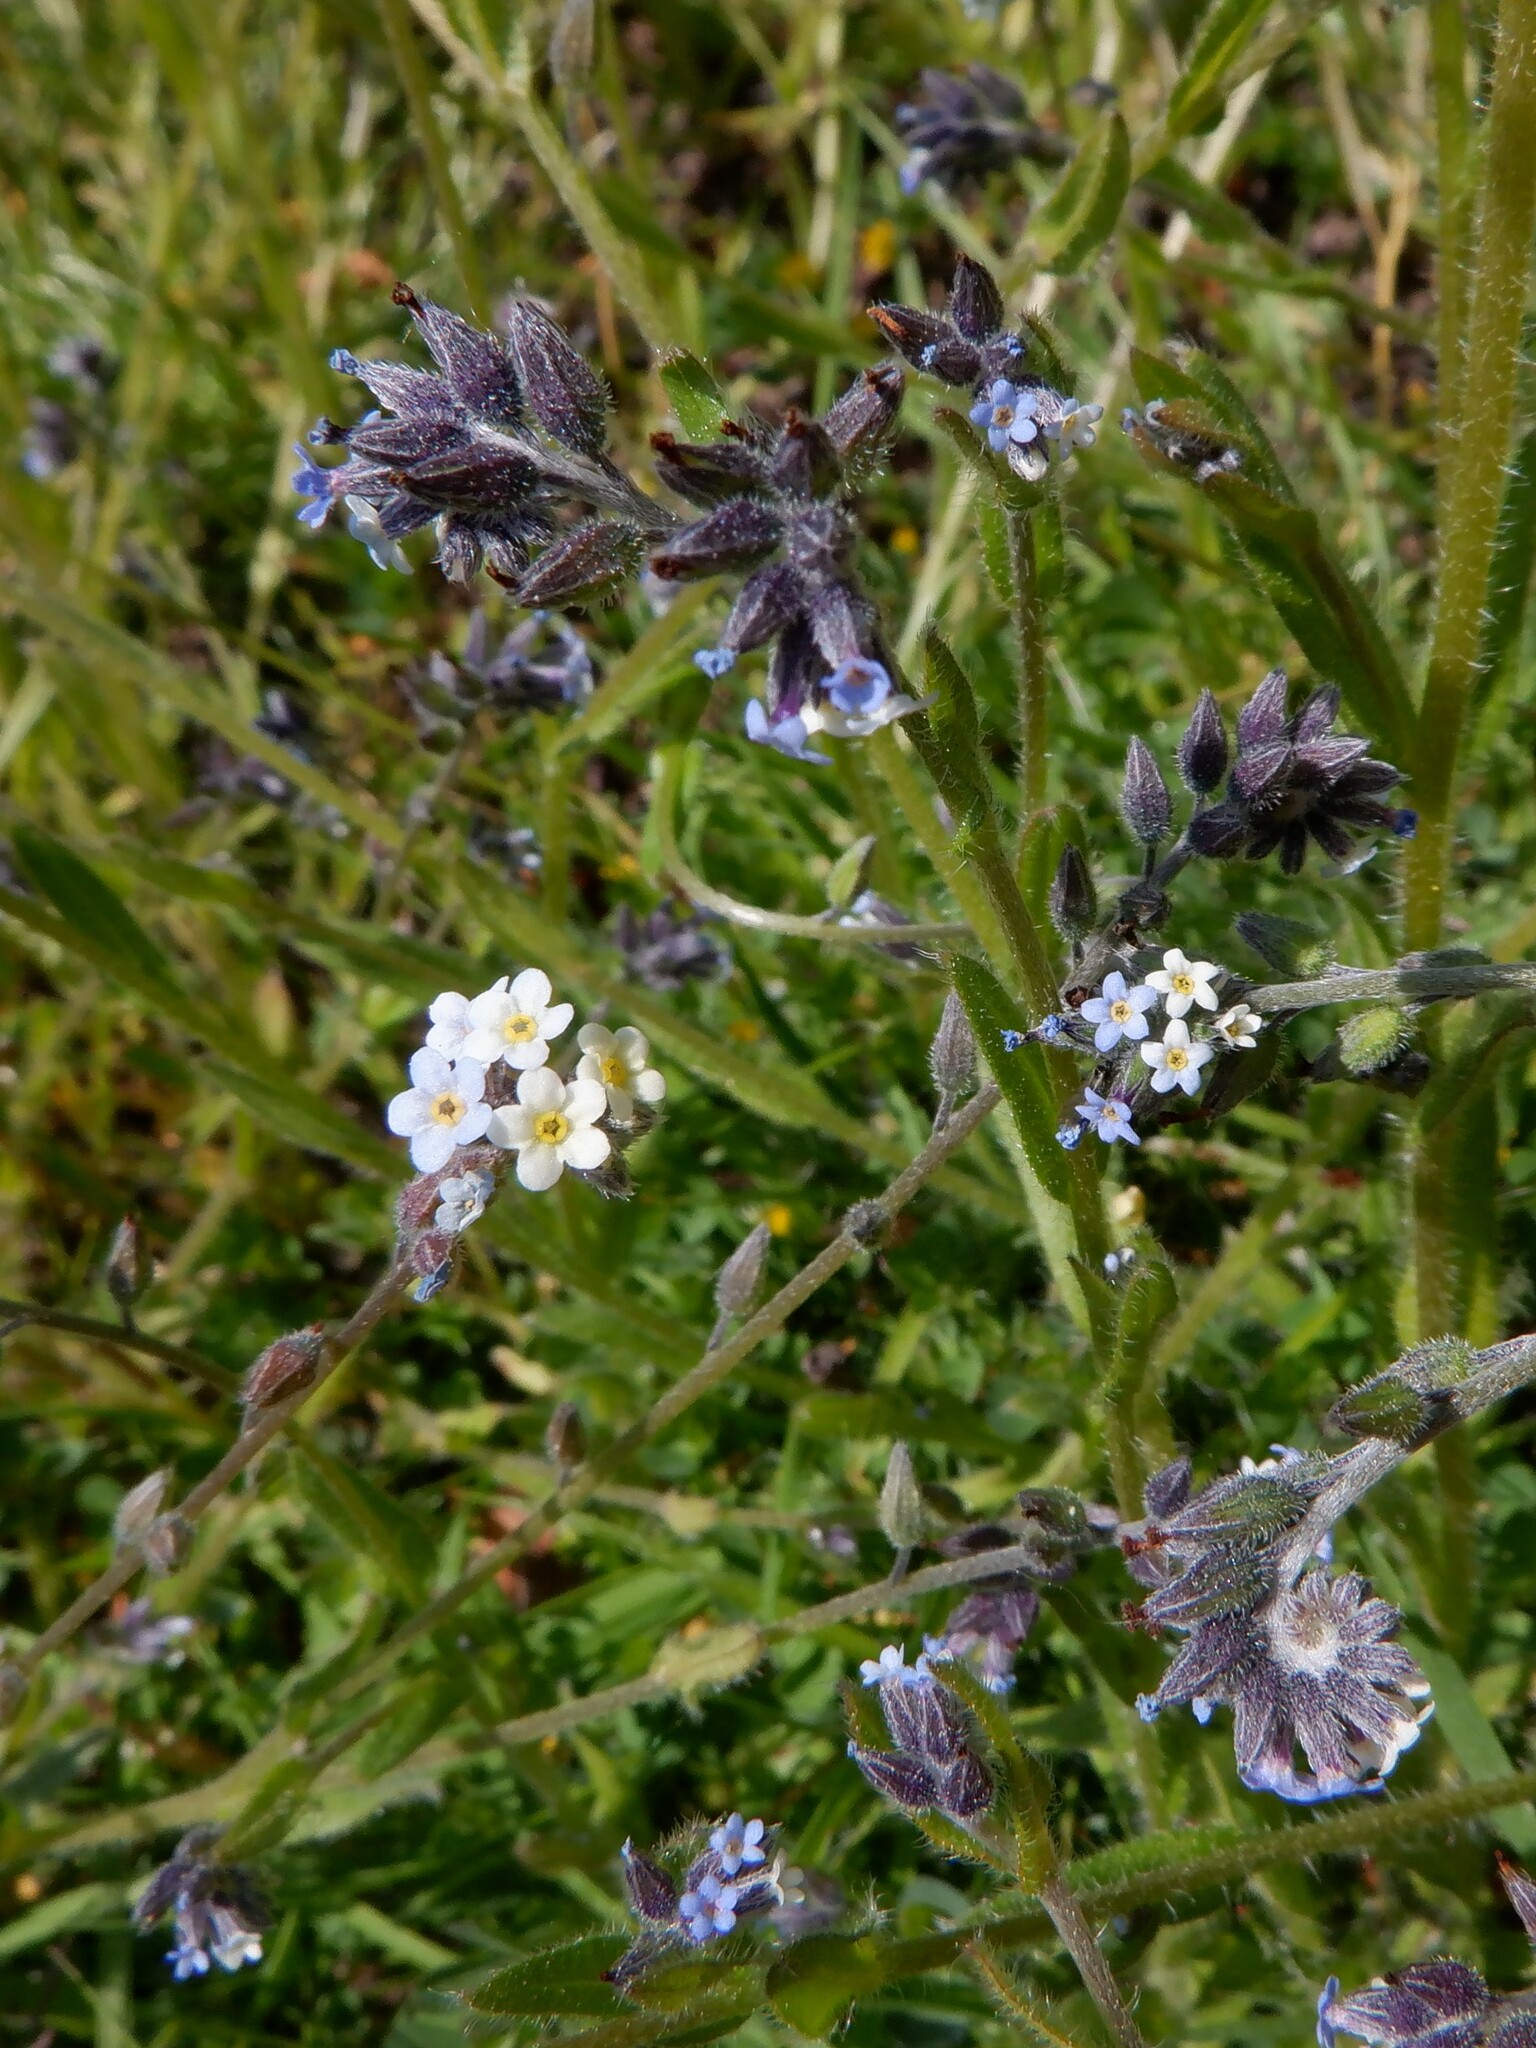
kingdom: Plantae
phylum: Tracheophyta
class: Magnoliopsida
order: Boraginales
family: Boraginaceae
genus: Myosotis
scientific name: Myosotis discolor
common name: Changing forget-me-not
